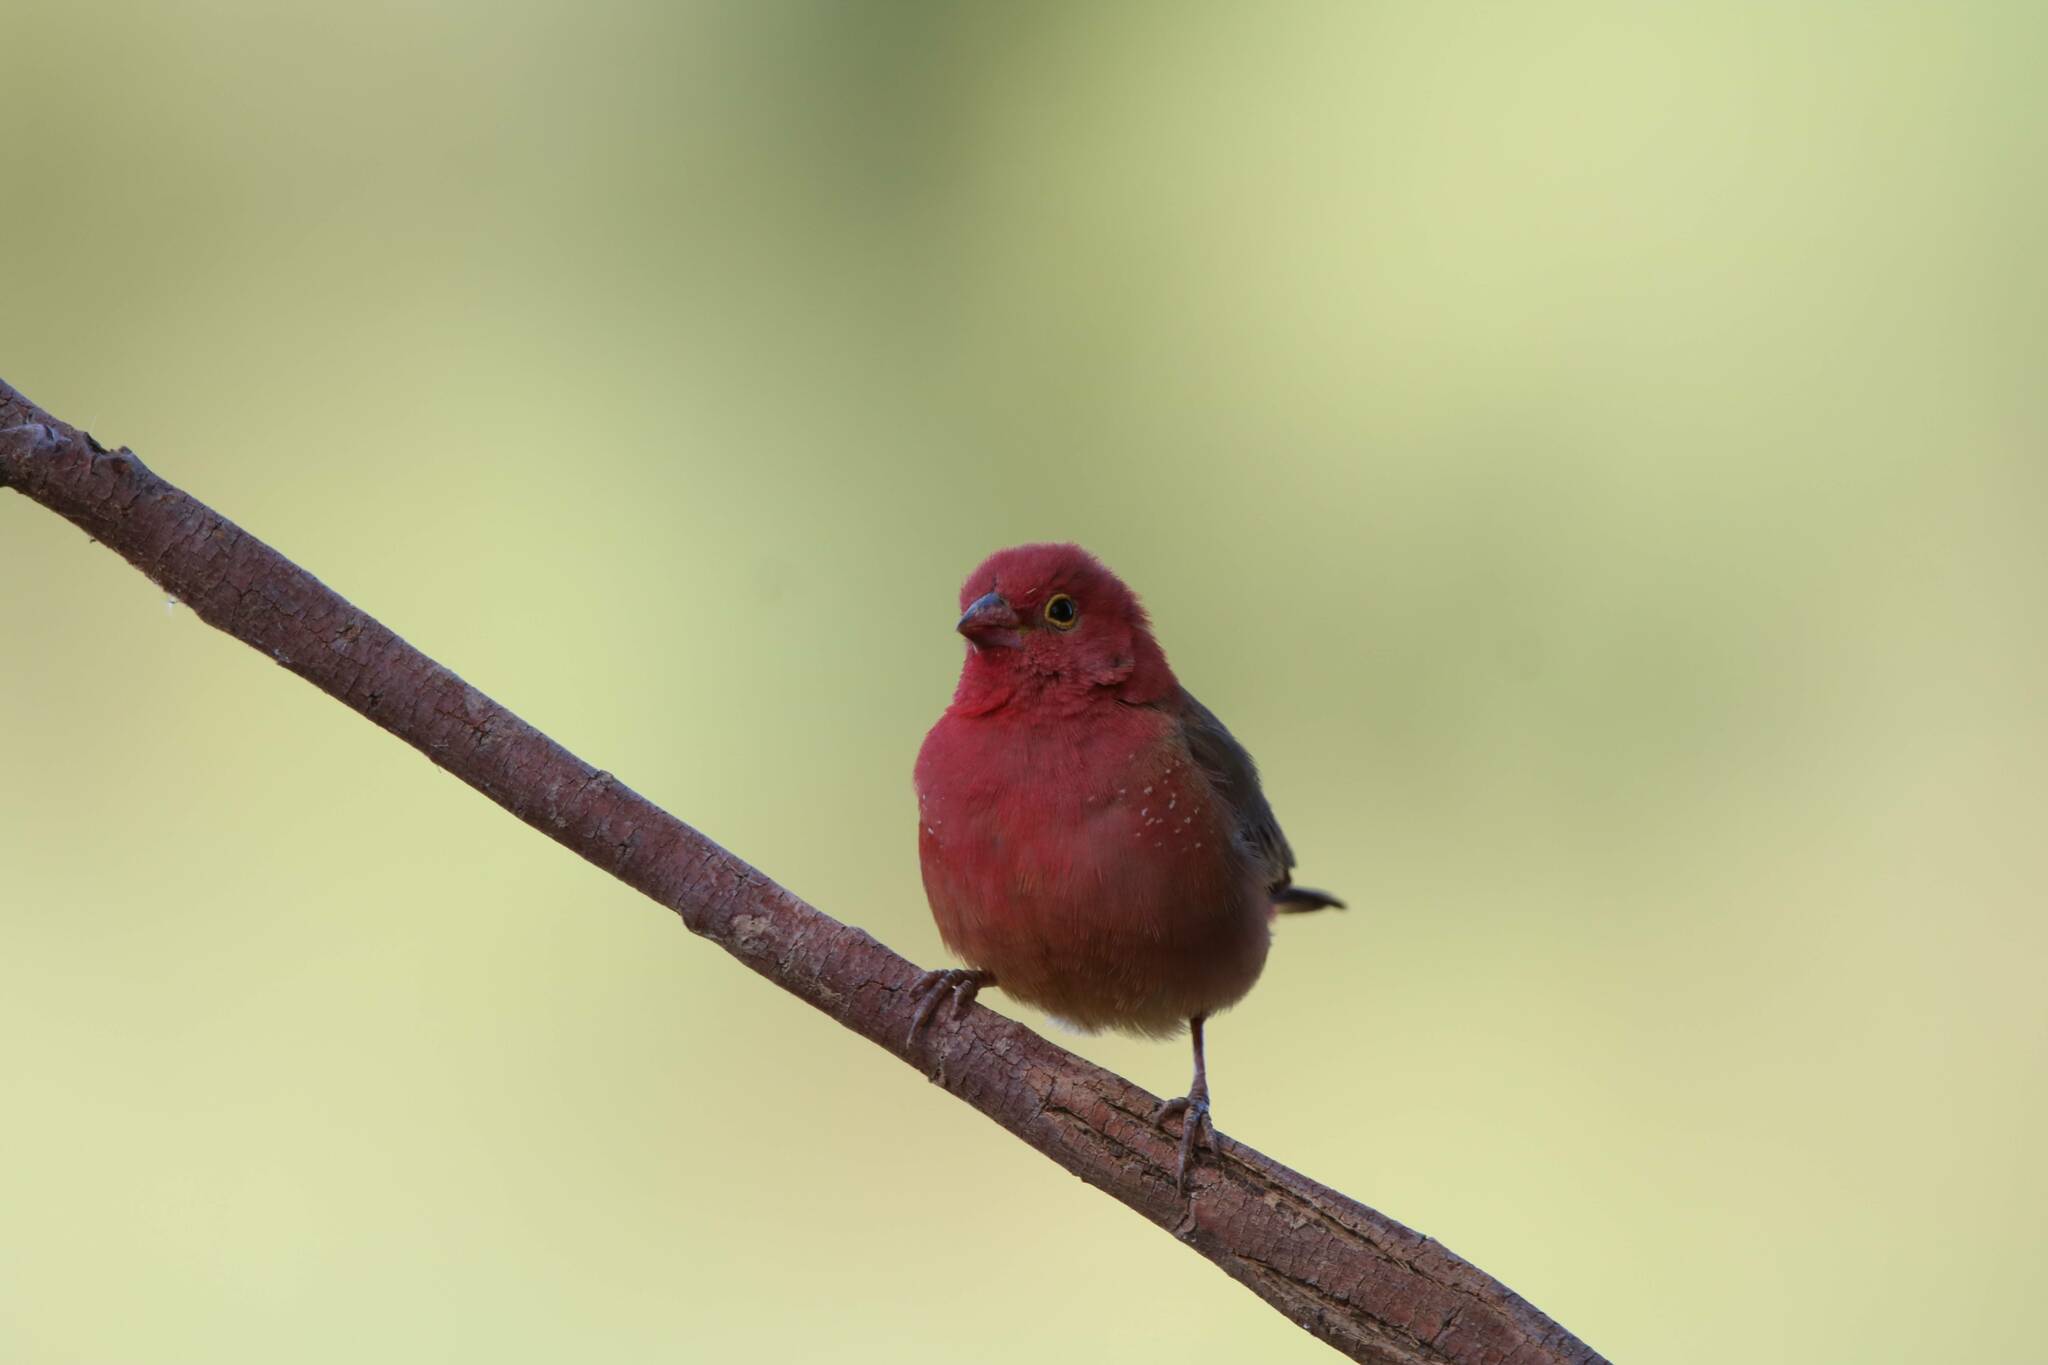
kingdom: Animalia
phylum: Chordata
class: Aves
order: Passeriformes
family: Estrildidae
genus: Lagonosticta
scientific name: Lagonosticta senegala
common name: Red-billed firefinch
